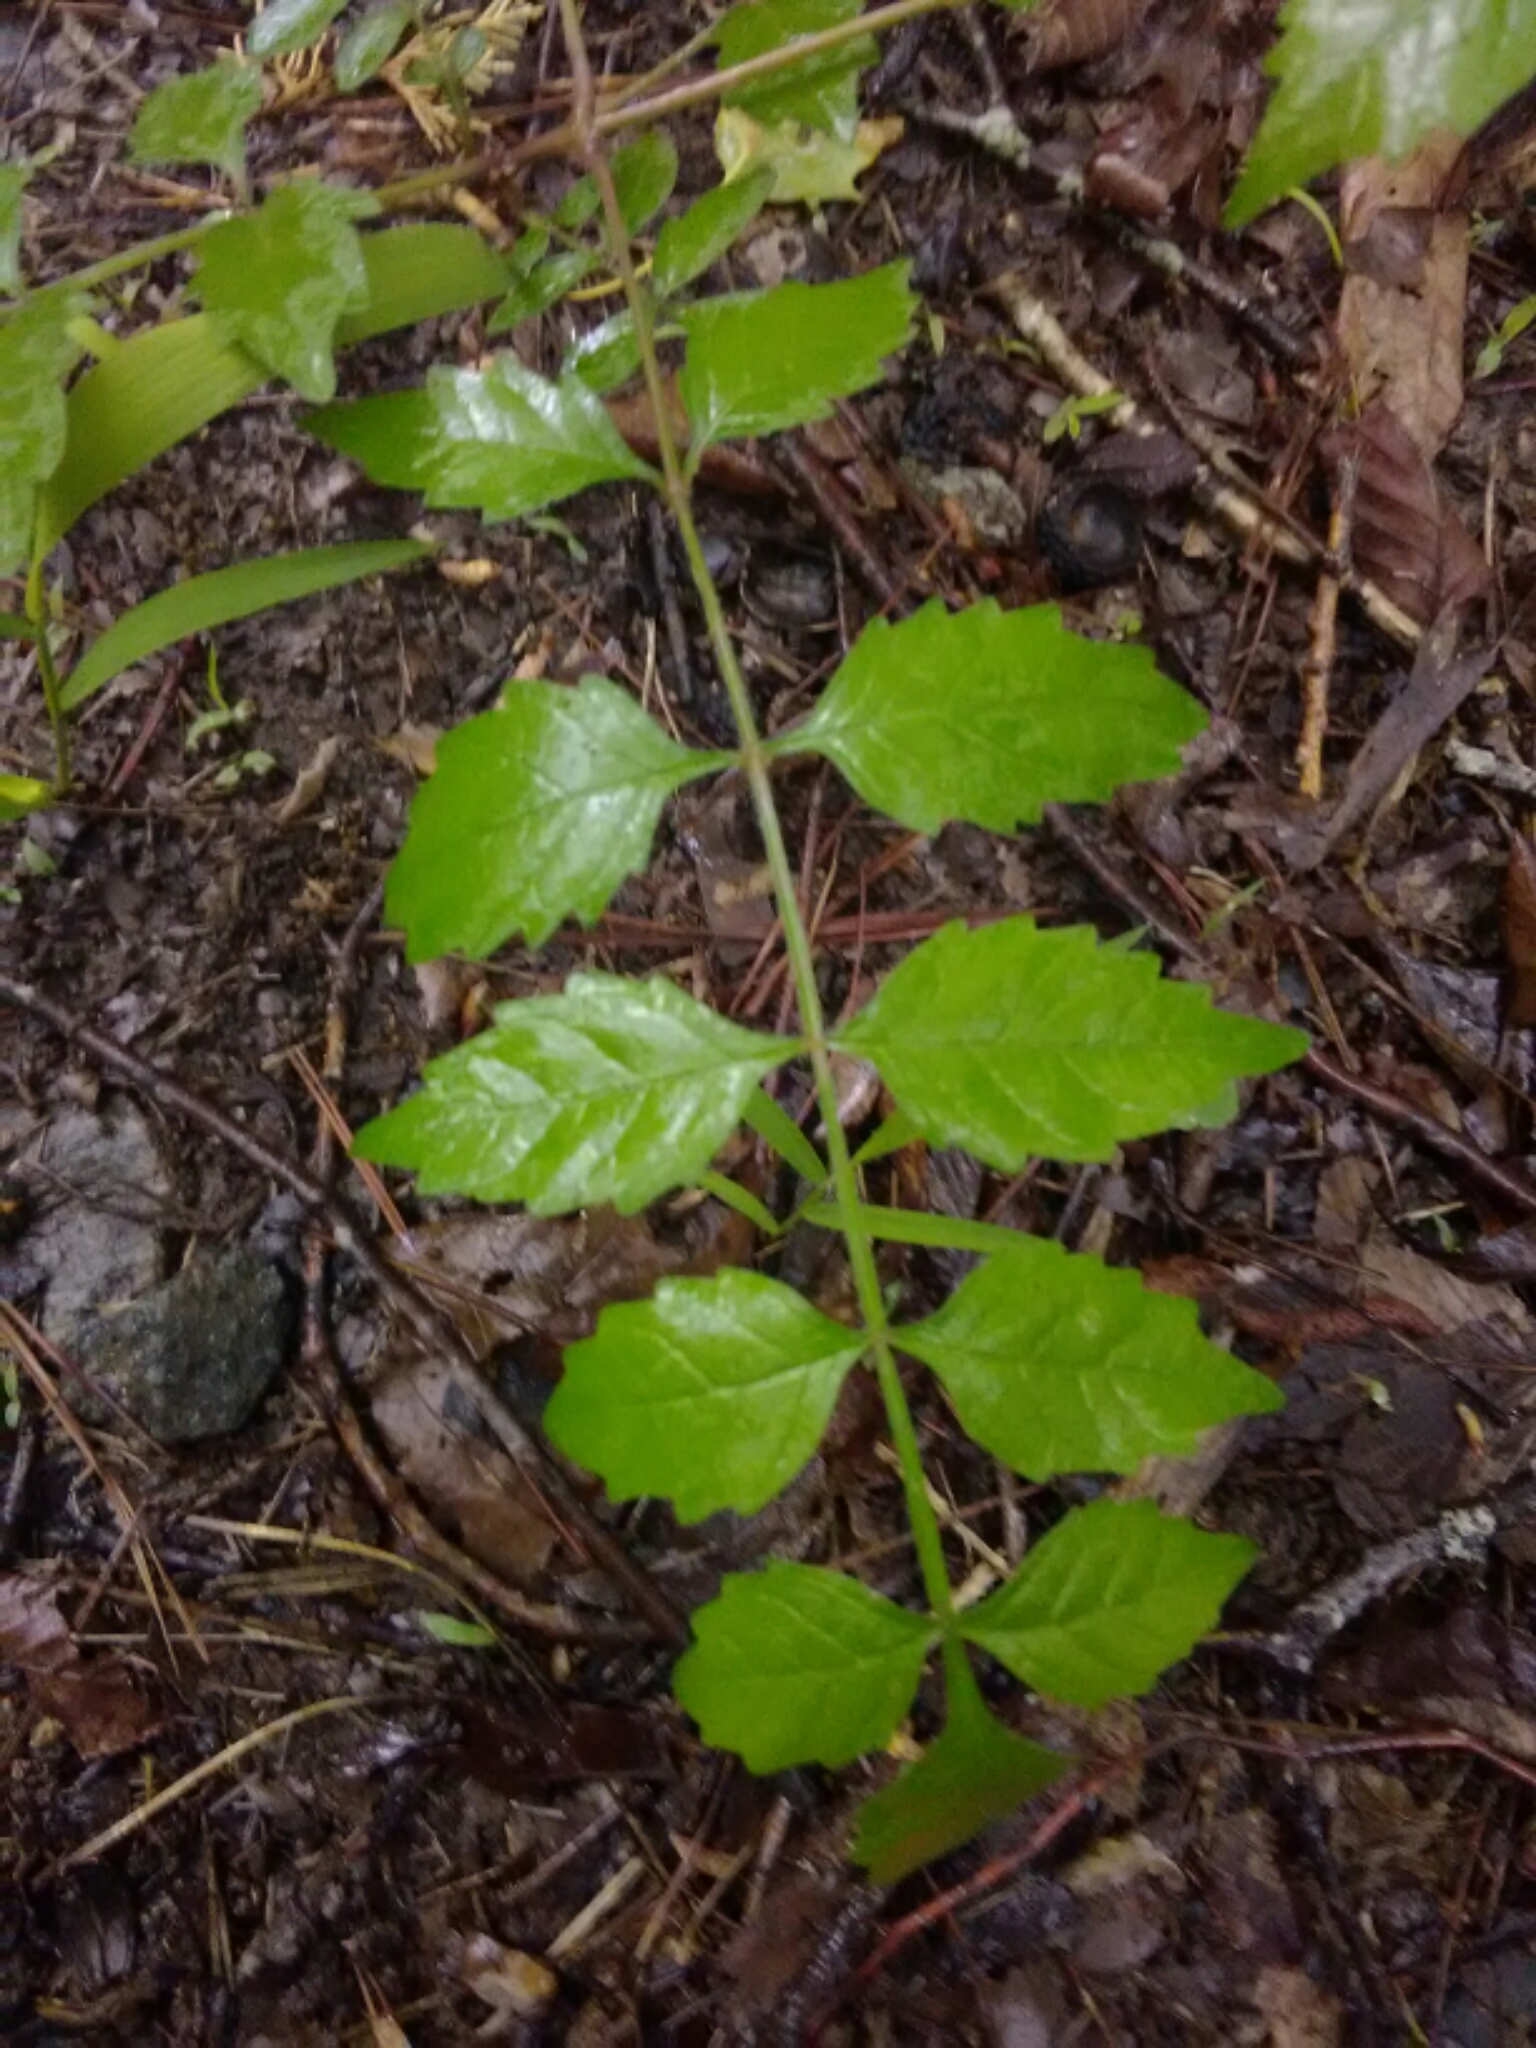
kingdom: Plantae
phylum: Tracheophyta
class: Magnoliopsida
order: Lamiales
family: Bignoniaceae
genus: Campsis
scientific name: Campsis radicans
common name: Trumpet-creeper
